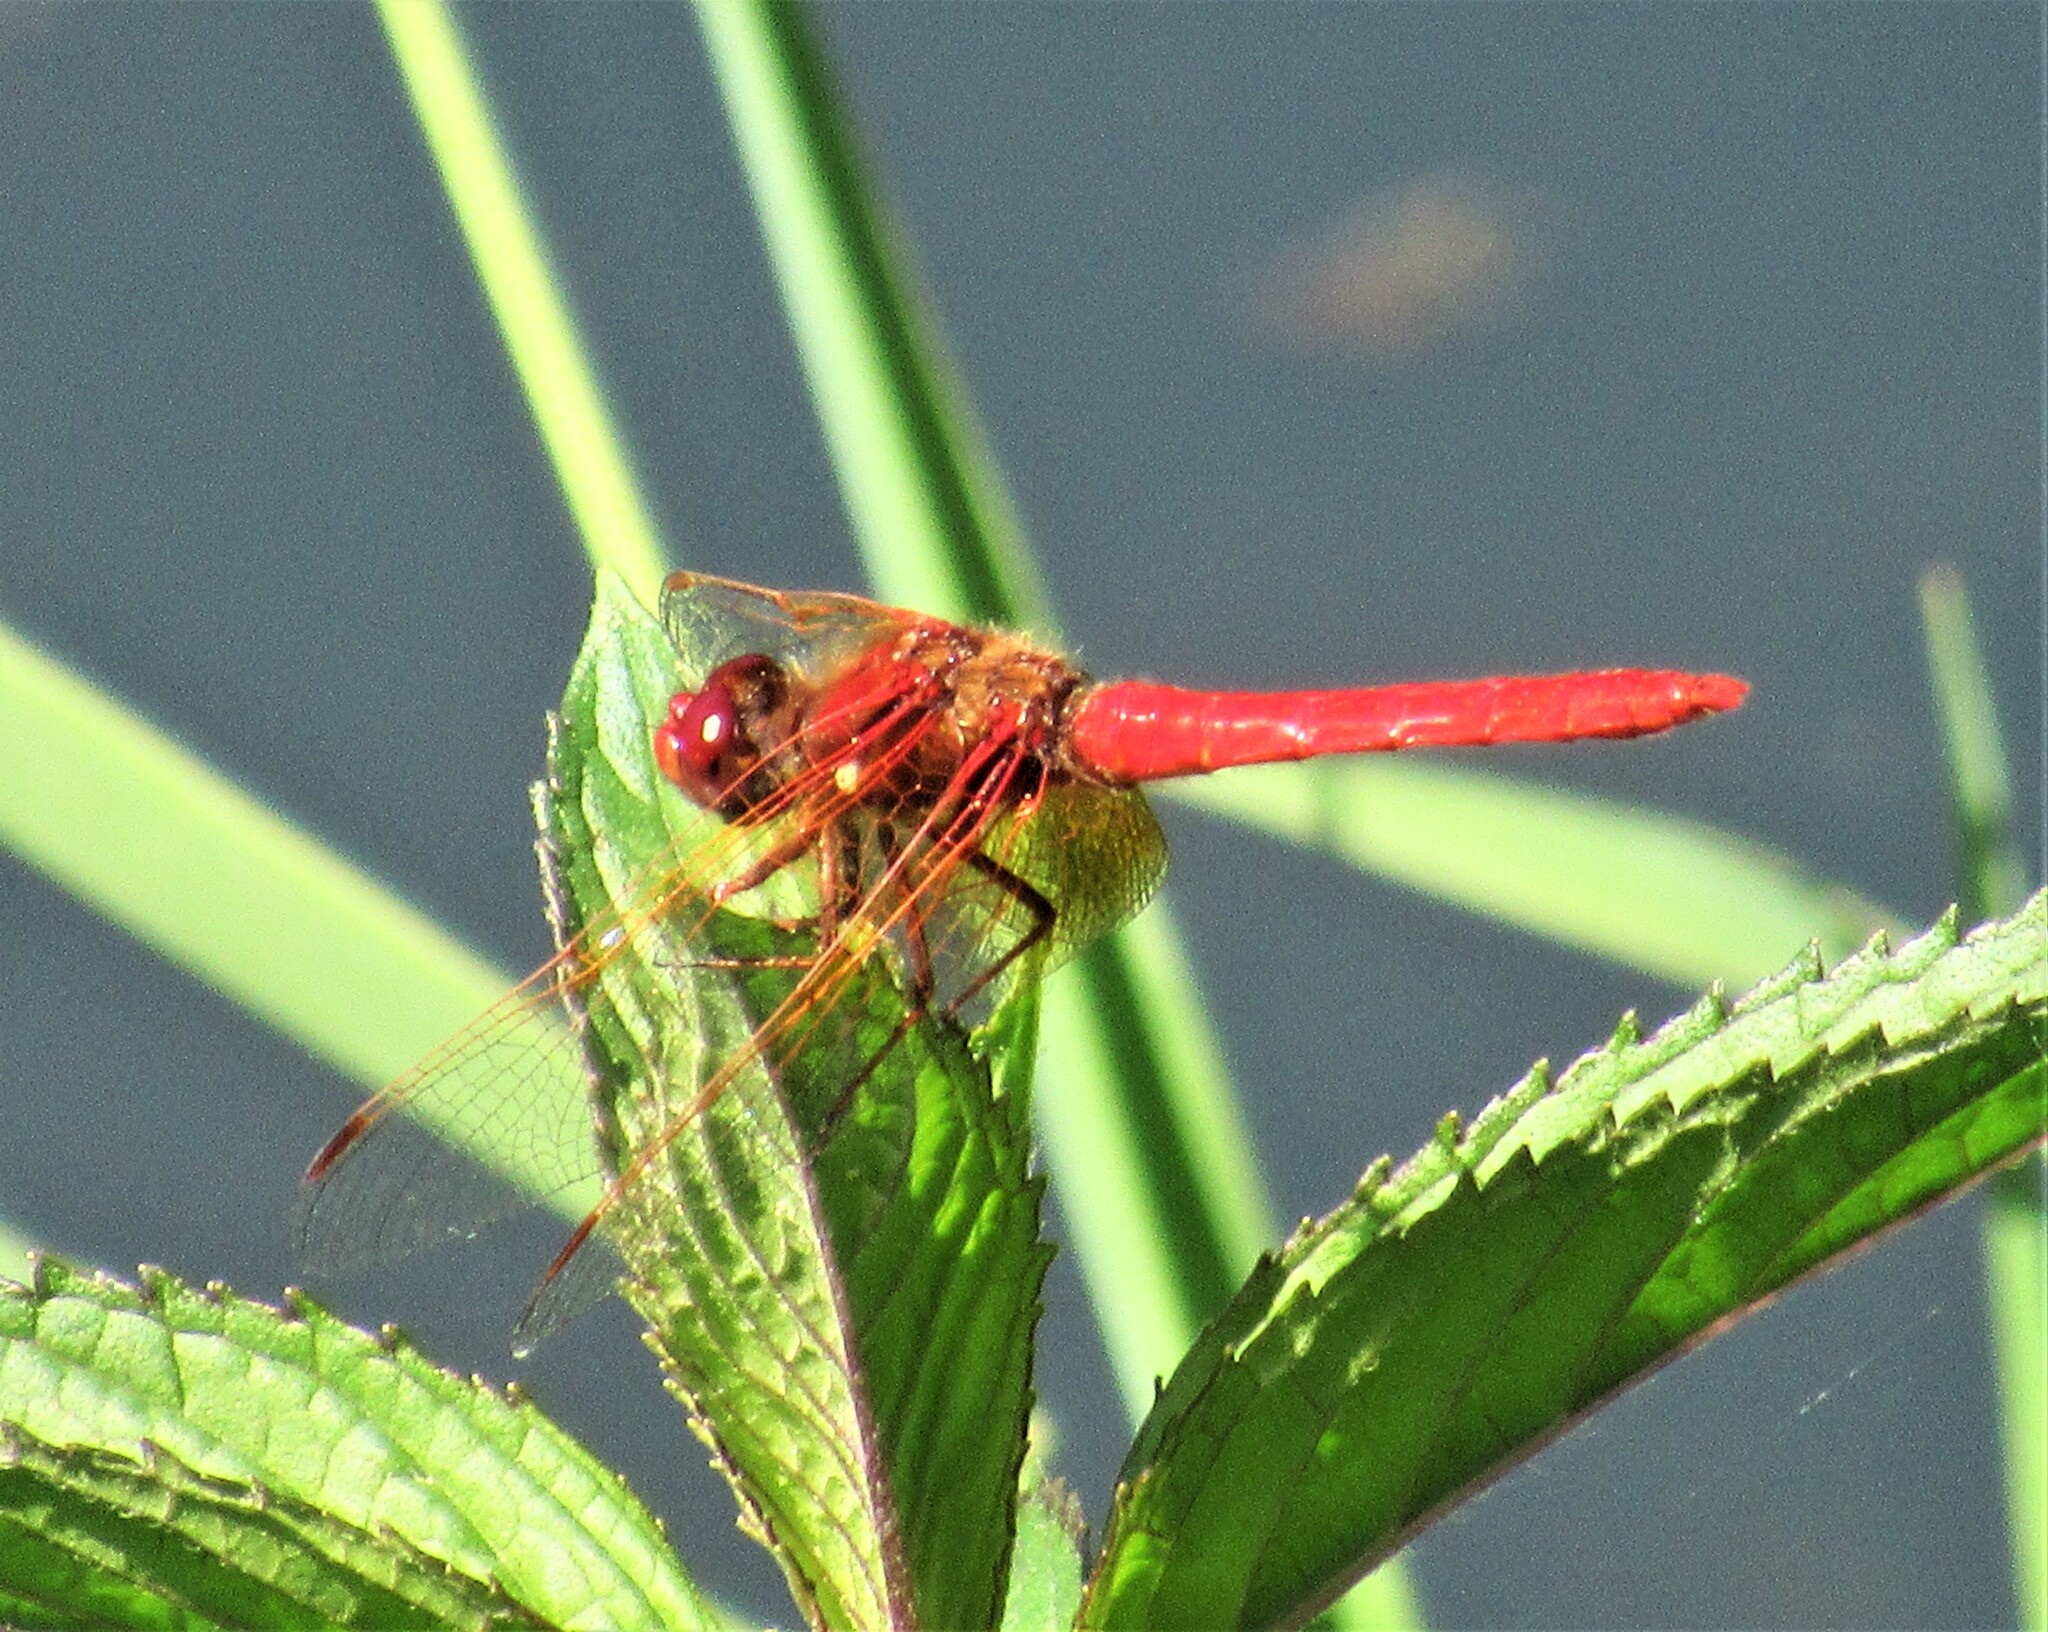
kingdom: Animalia
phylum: Arthropoda
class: Insecta
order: Odonata
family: Libellulidae
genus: Sympetrum
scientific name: Sympetrum illotum
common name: Cardinal meadowhawk
